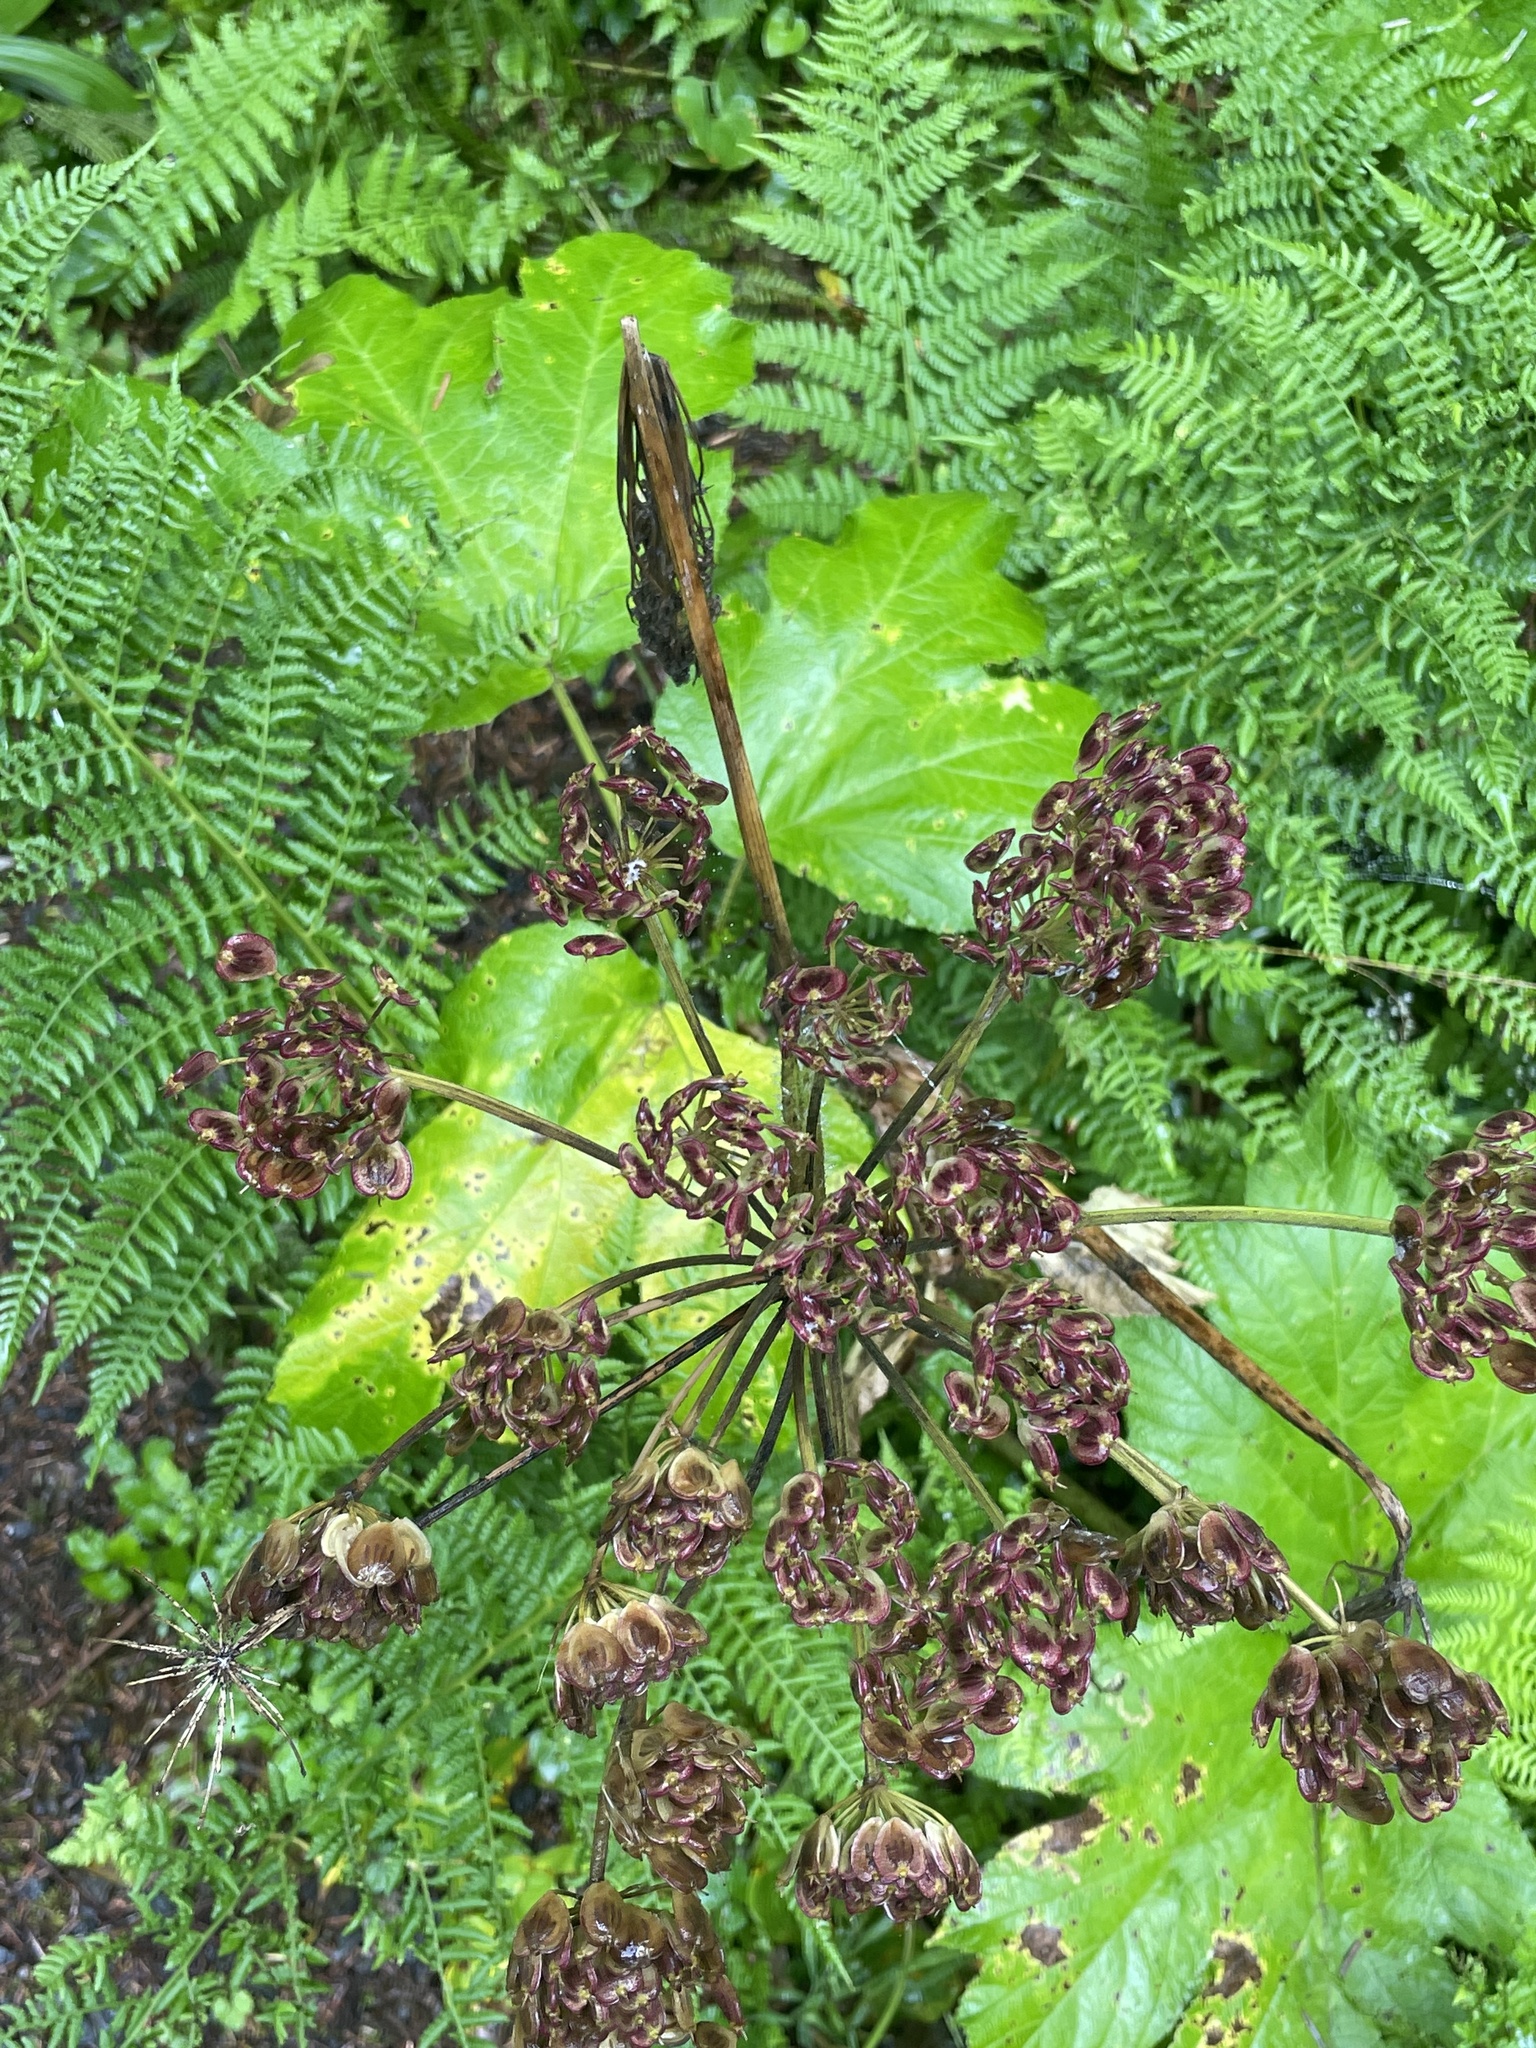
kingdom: Plantae
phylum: Tracheophyta
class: Magnoliopsida
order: Apiales
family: Apiaceae
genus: Heracleum
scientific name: Heracleum maximum
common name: American cow parsnip
